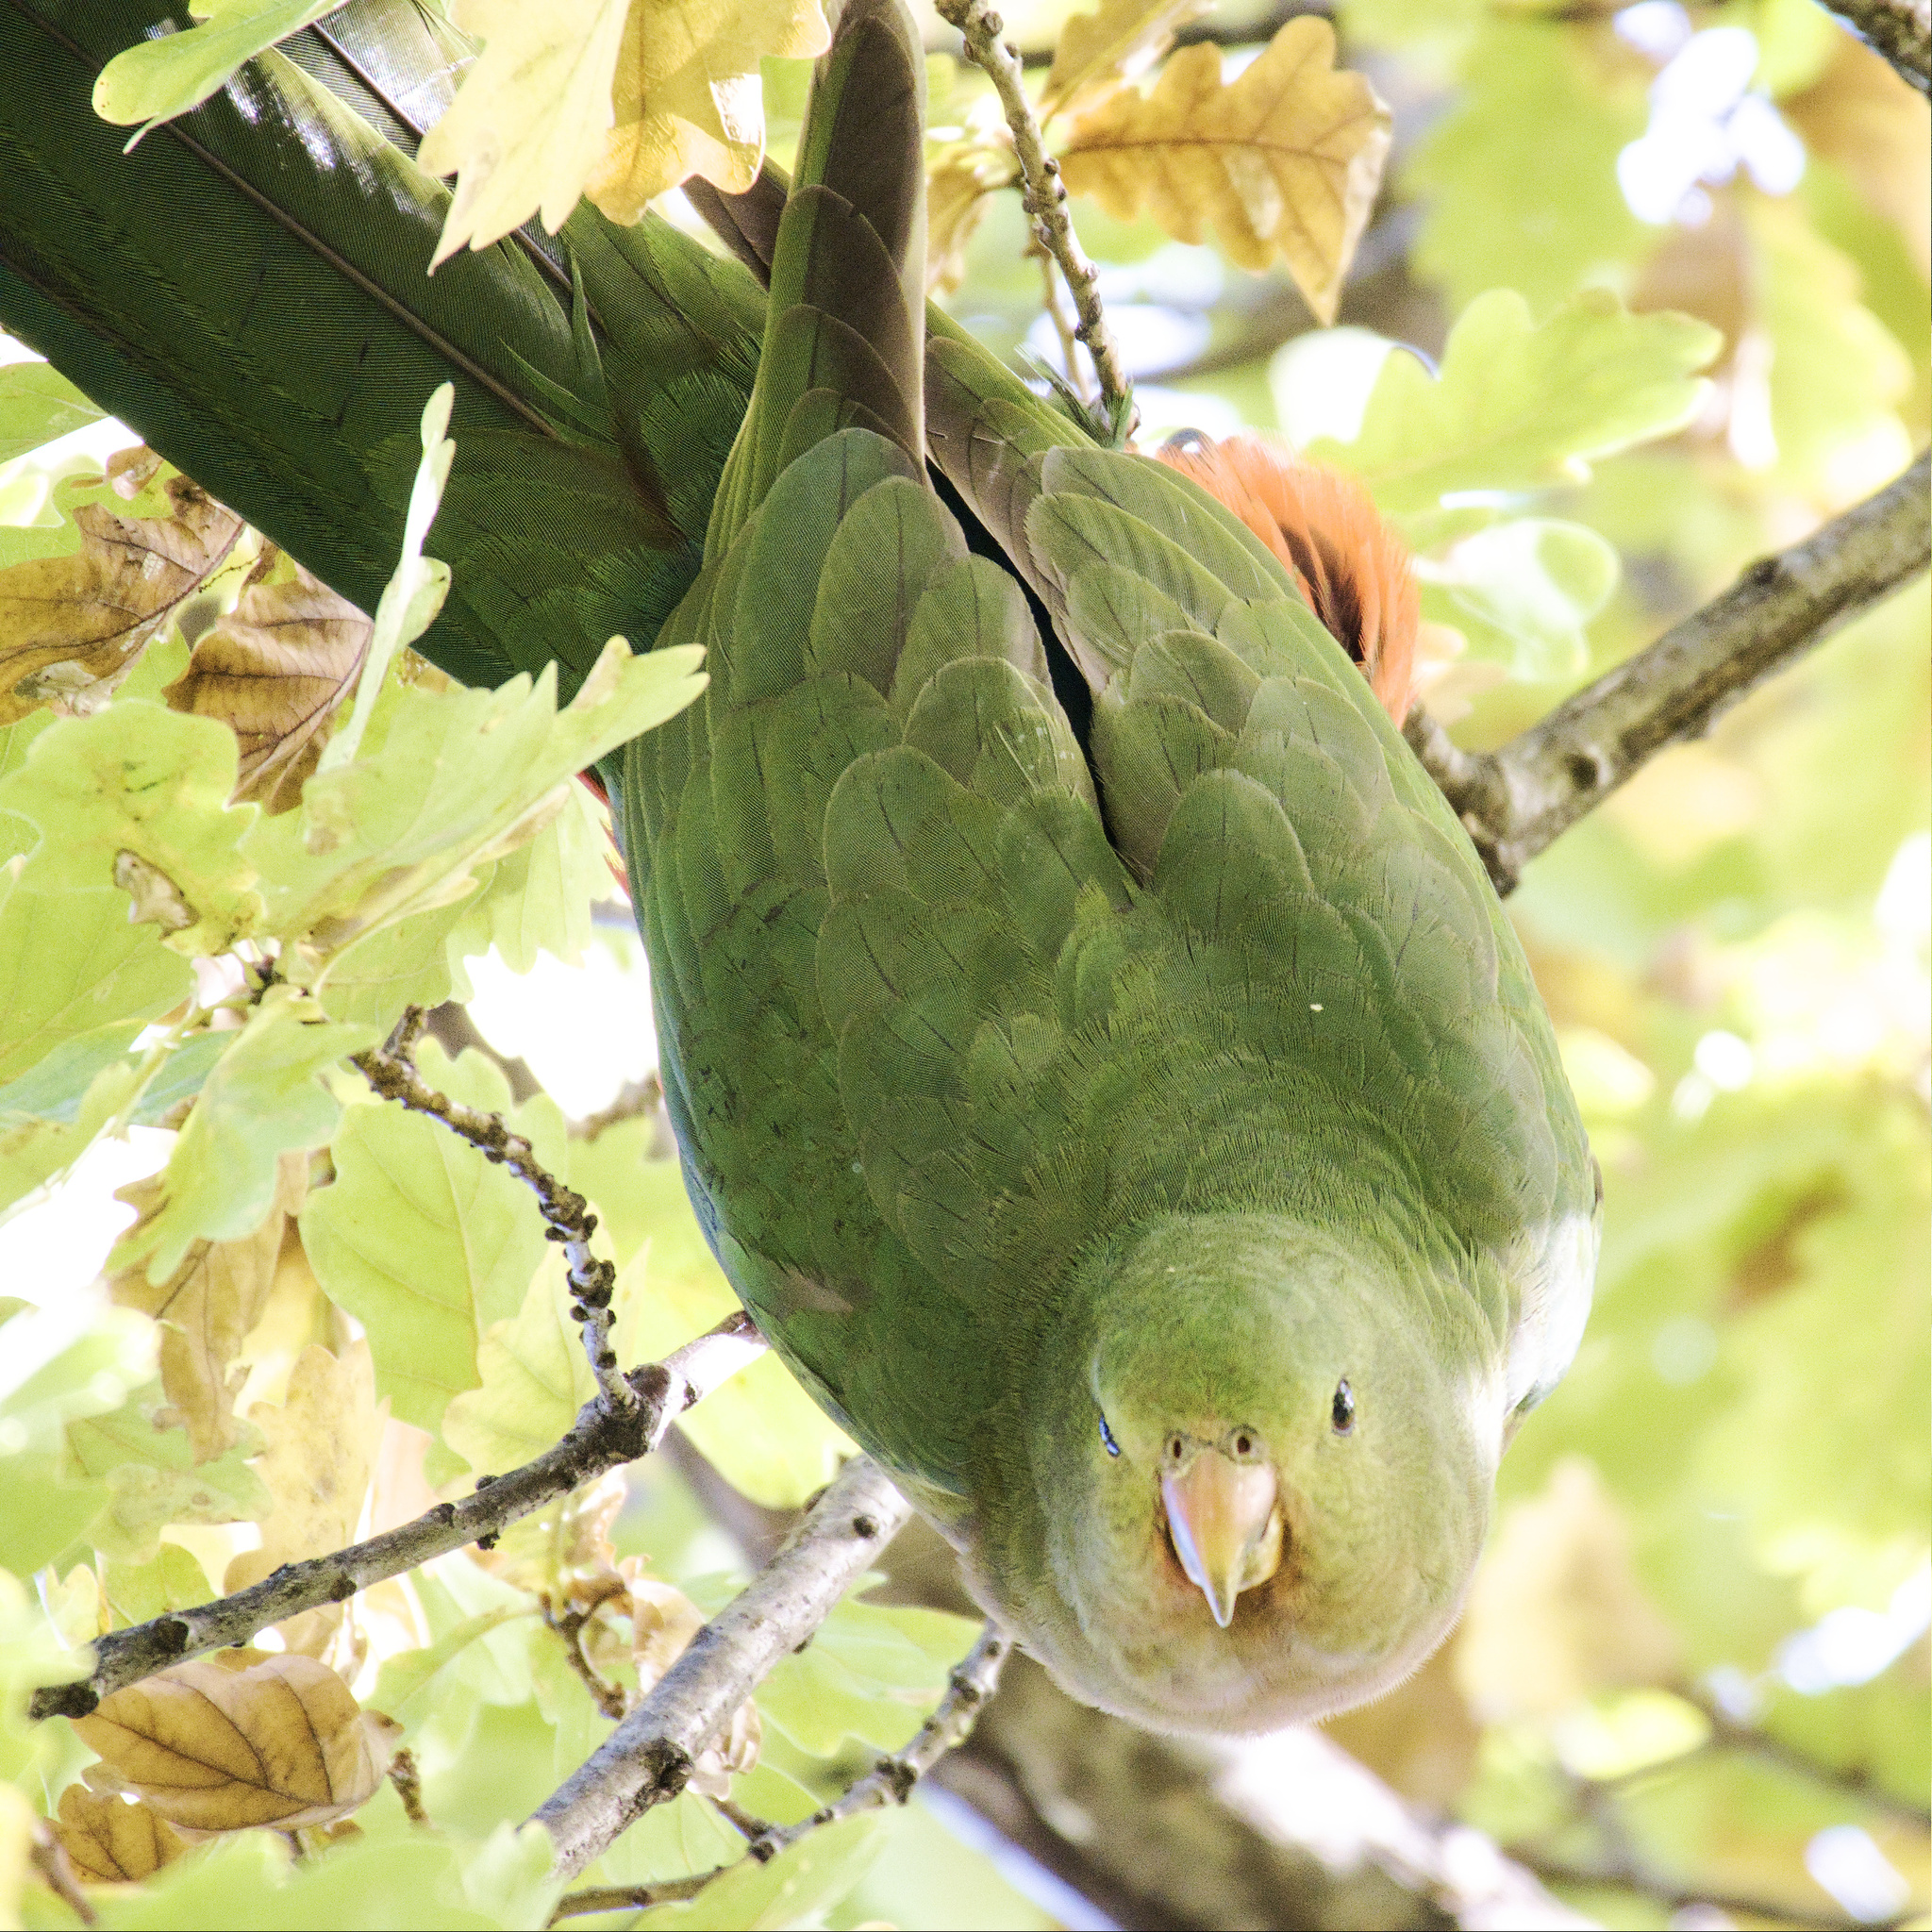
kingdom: Animalia
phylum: Chordata
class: Aves
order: Psittaciformes
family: Psittacidae
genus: Alisterus
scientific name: Alisterus scapularis
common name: Australian king parrot
